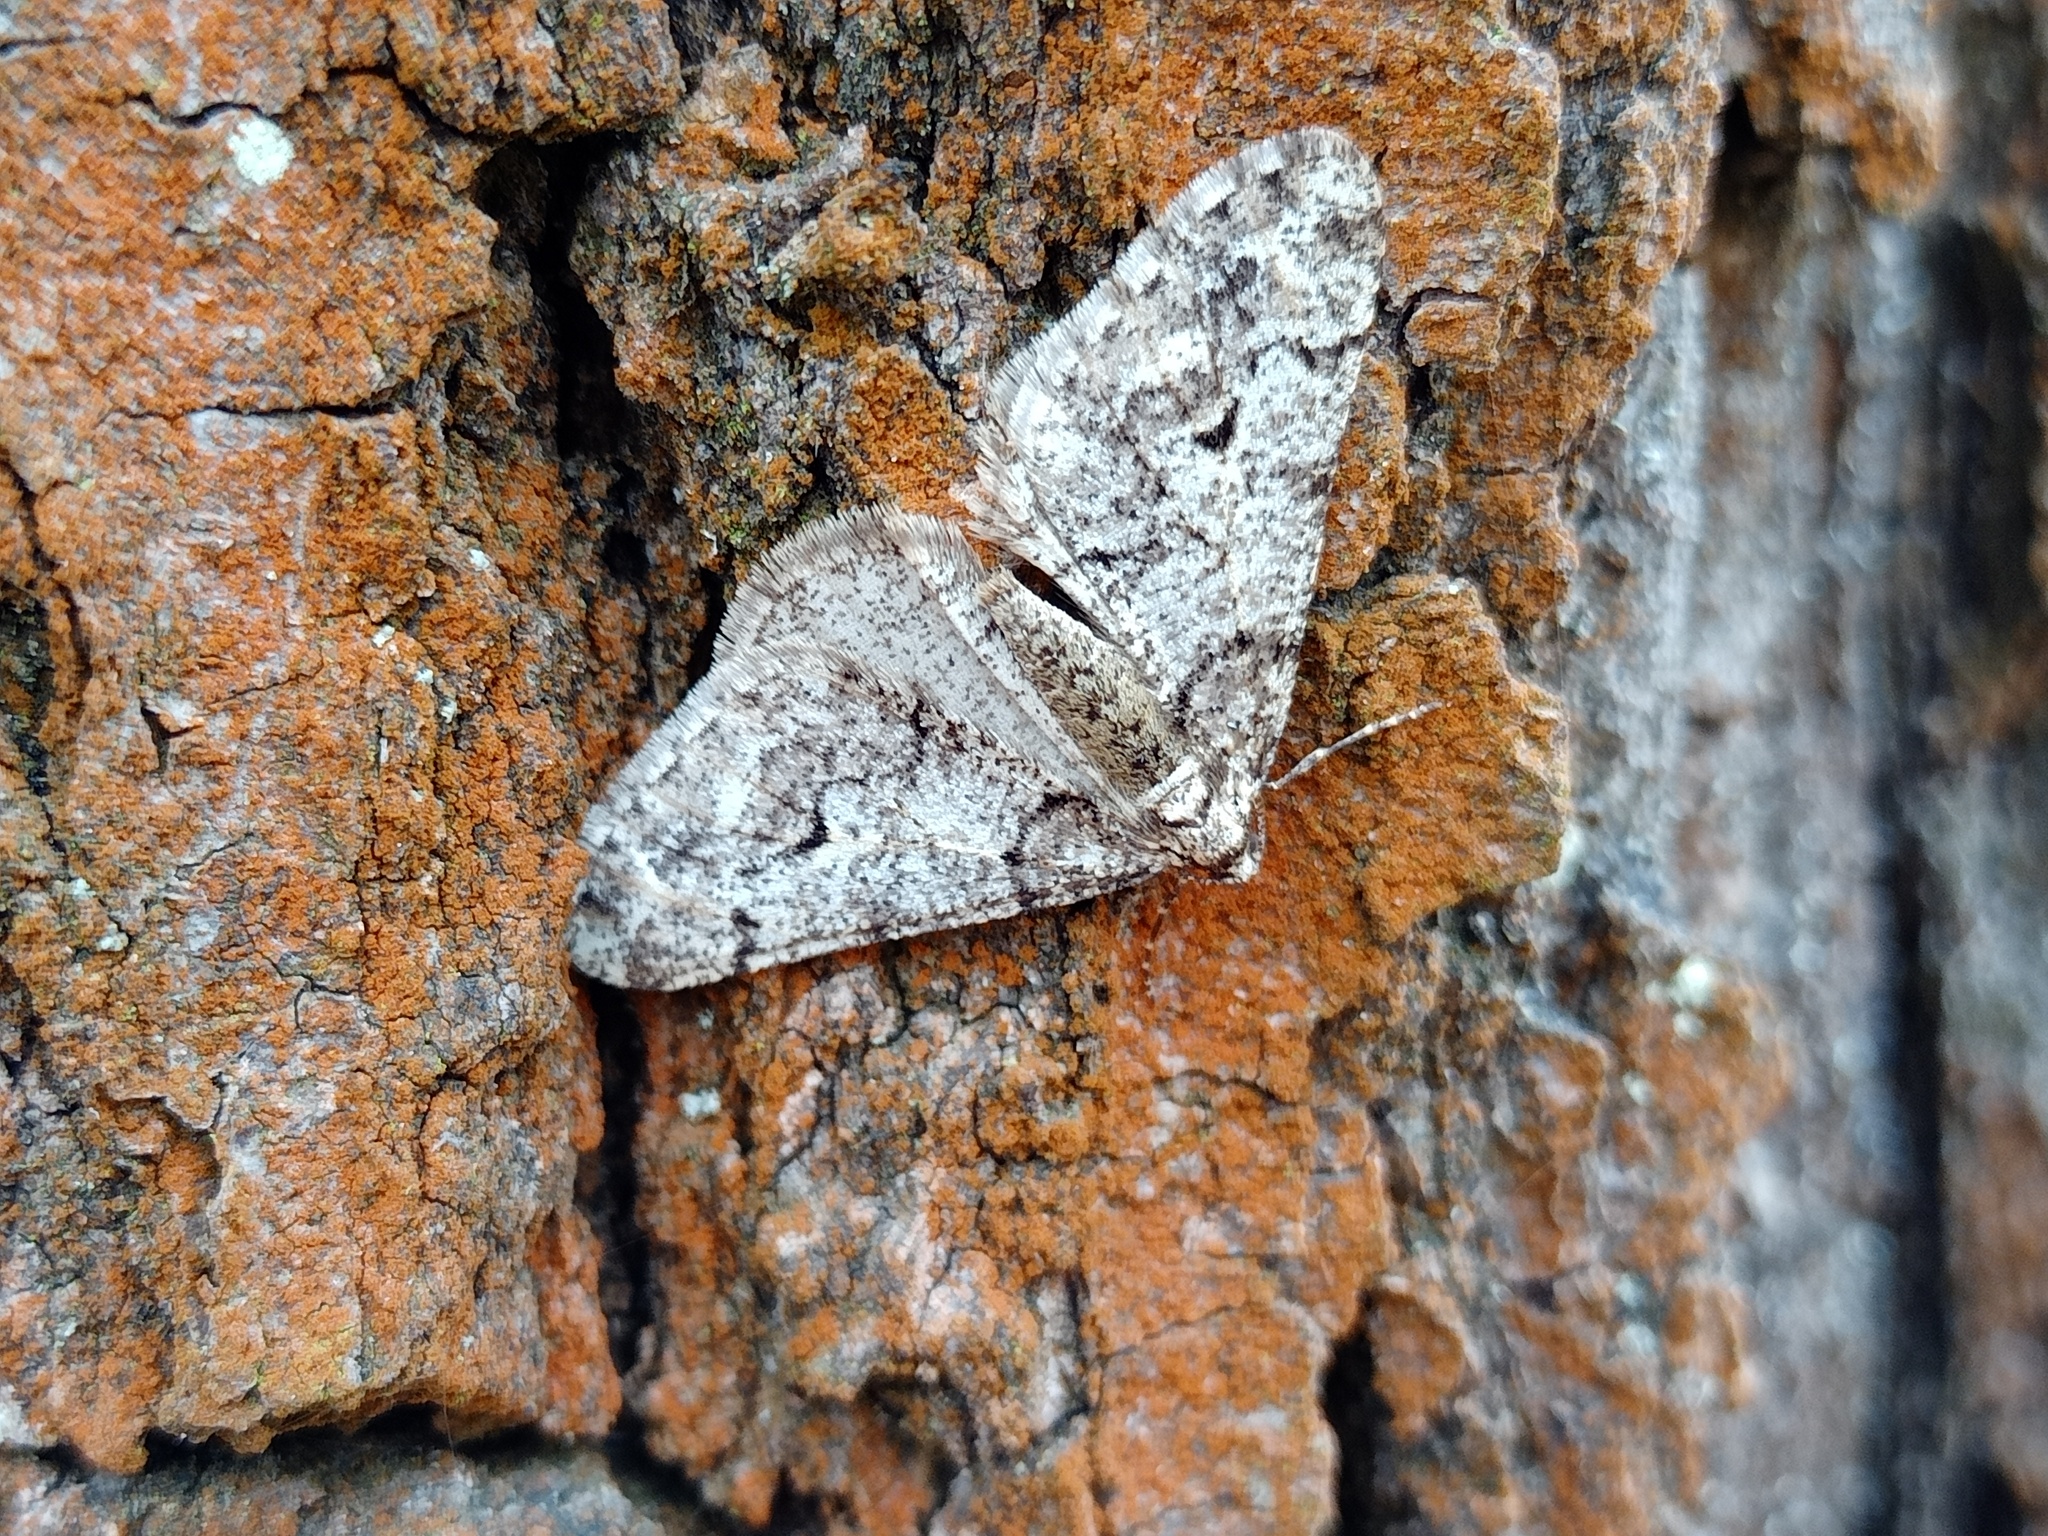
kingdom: Animalia
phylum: Arthropoda
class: Insecta
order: Lepidoptera
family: Geometridae
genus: Agriopis
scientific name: Agriopis leucophaearia
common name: Spring usher
